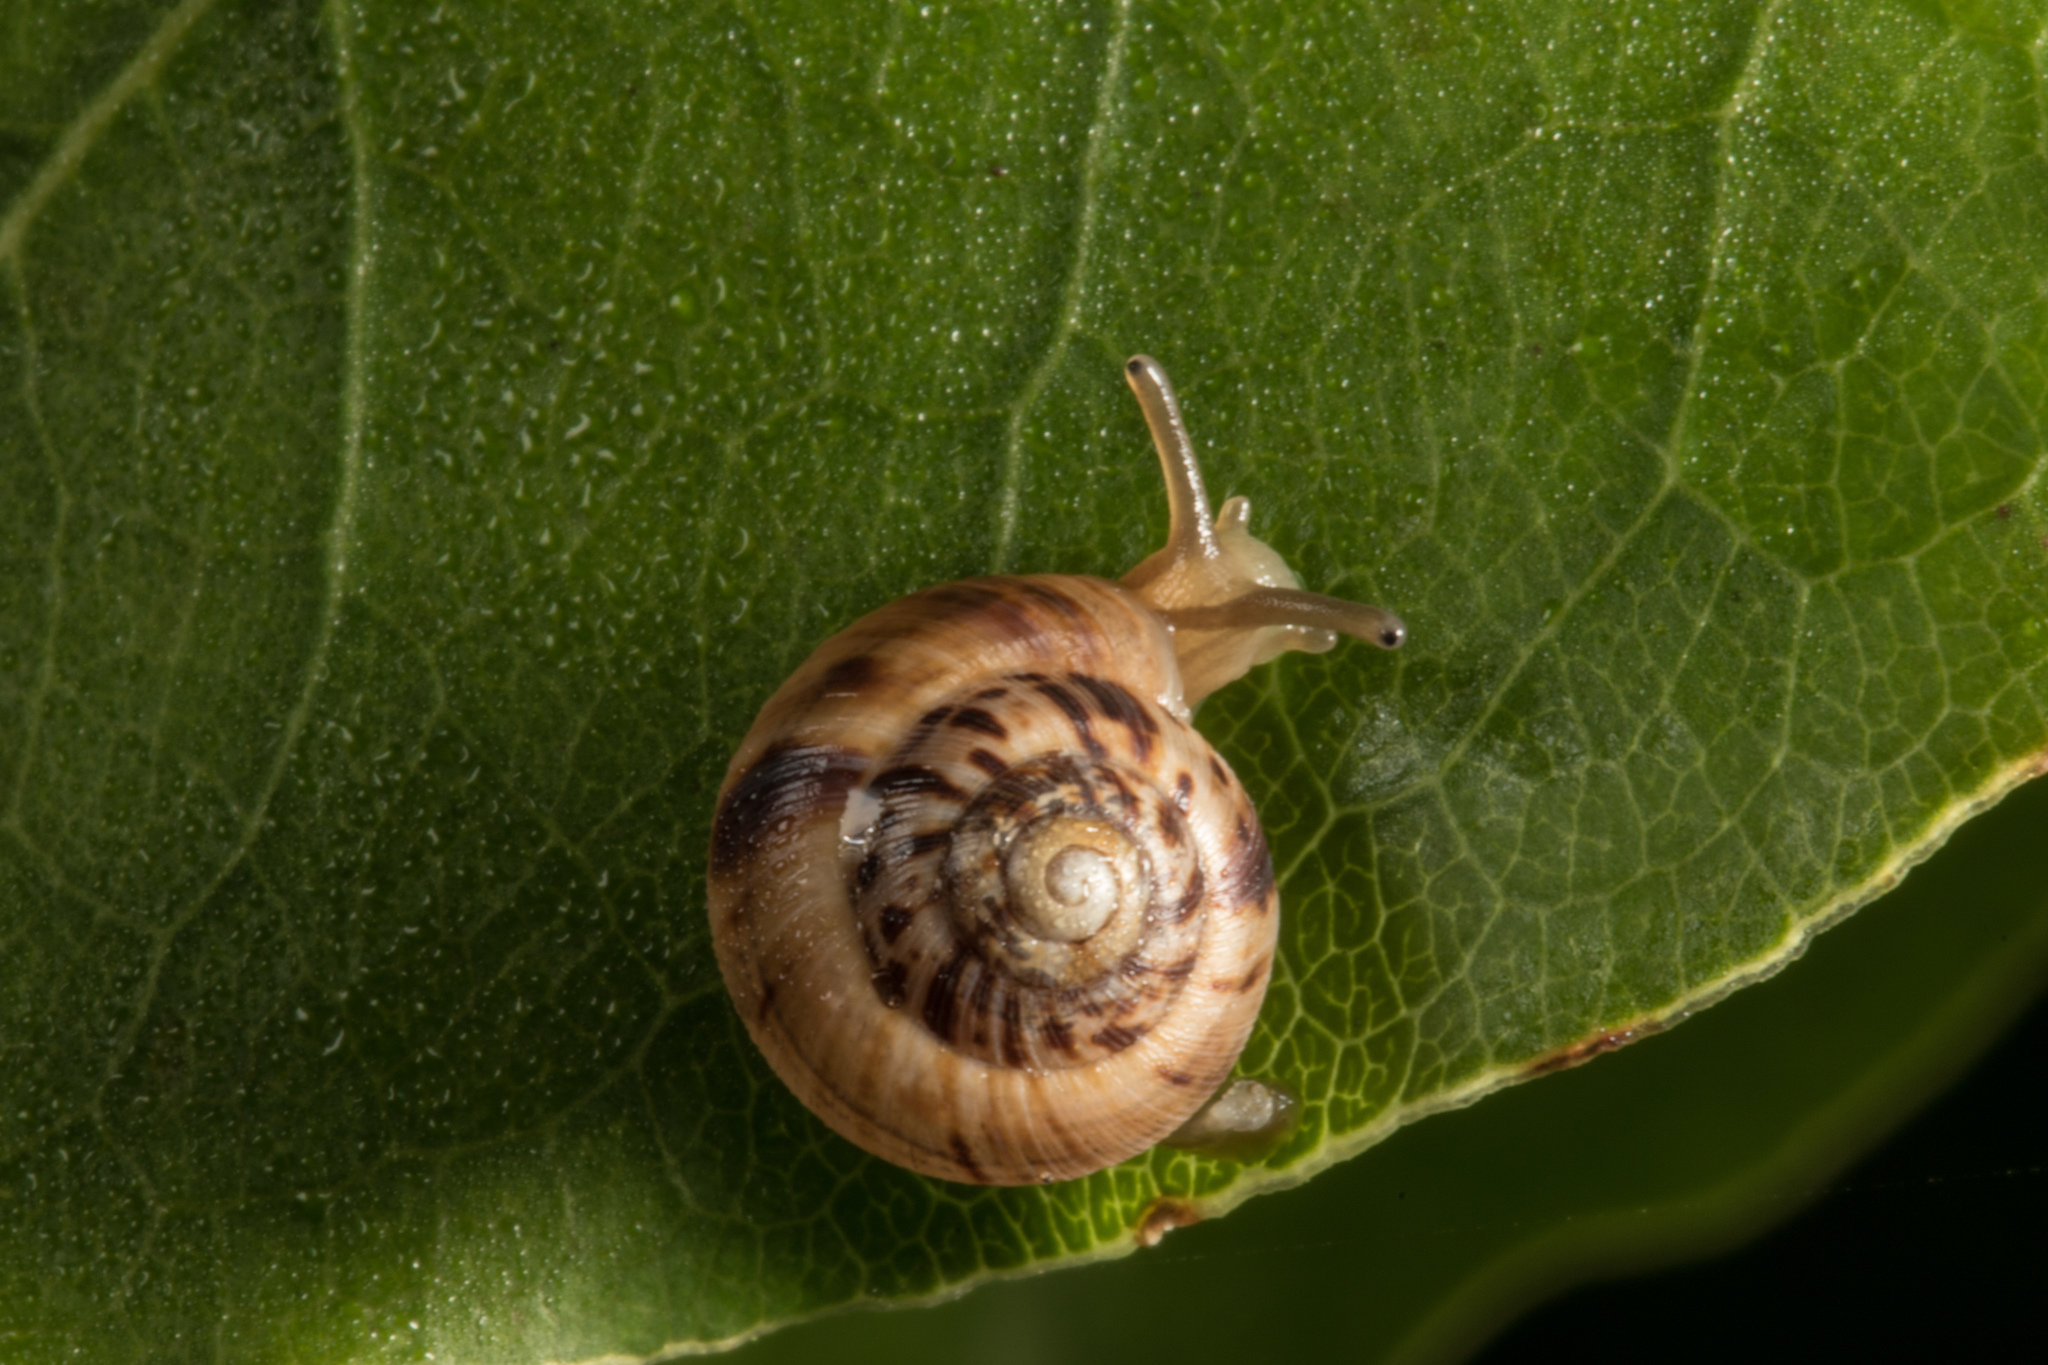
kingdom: Animalia
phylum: Mollusca
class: Gastropoda
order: Stylommatophora
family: Charopidae
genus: Serpho
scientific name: Serpho
